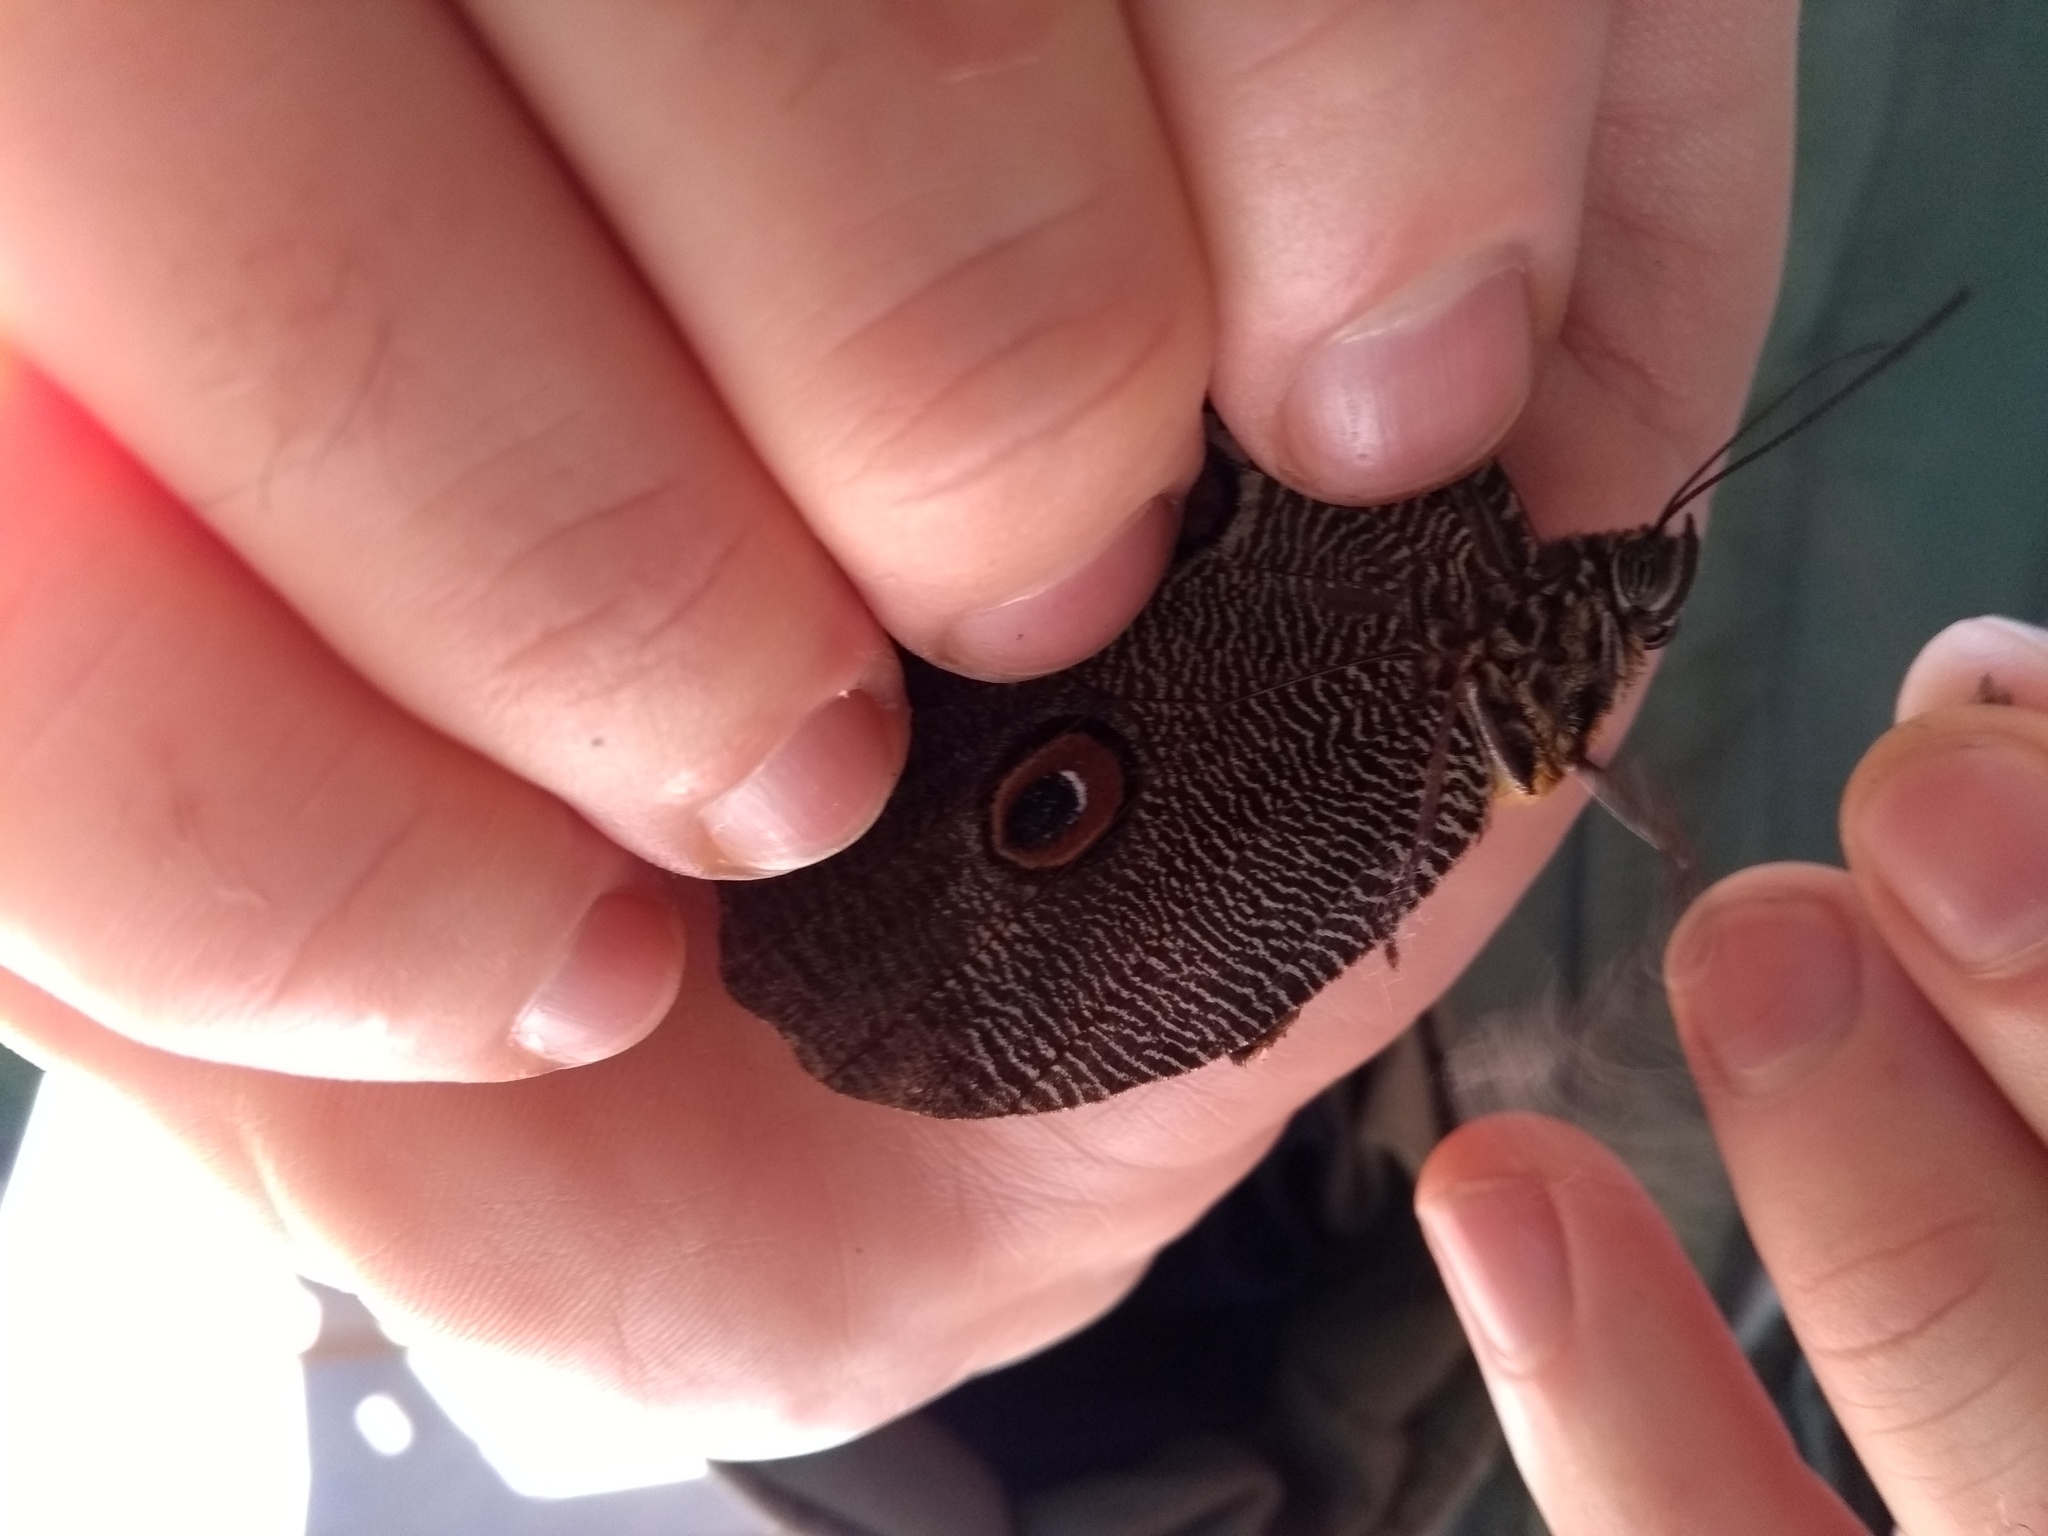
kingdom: Animalia
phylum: Arthropoda
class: Insecta
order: Lepidoptera
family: Nymphalidae
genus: Dasyophthalma
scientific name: Dasyophthalma creusa
